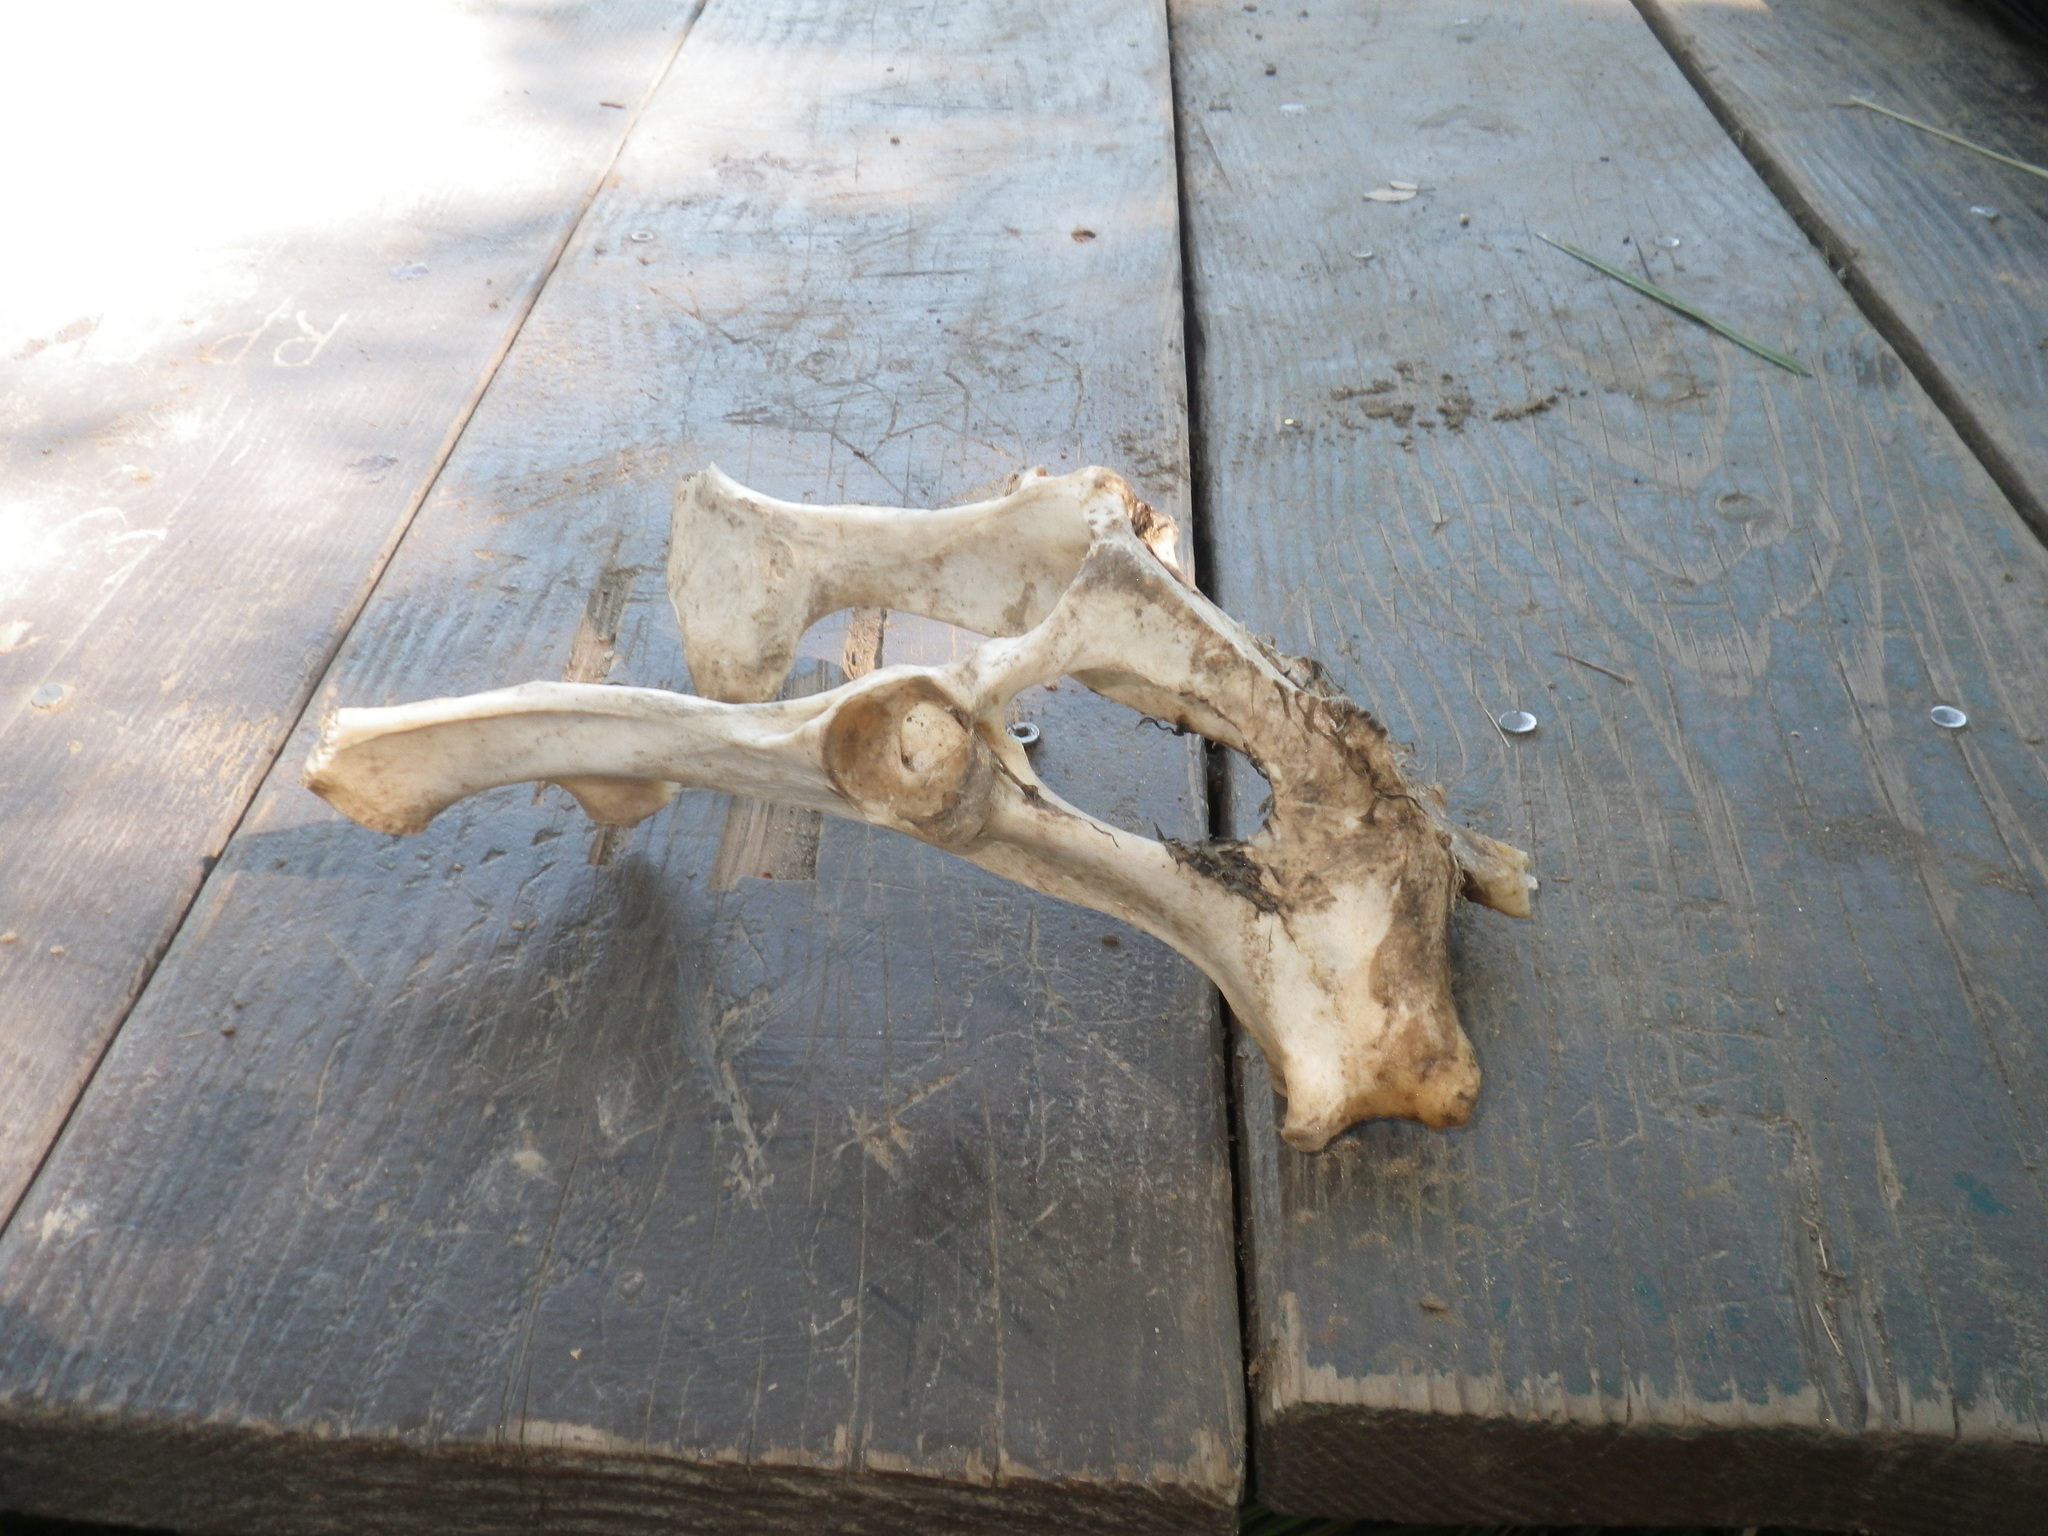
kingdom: Animalia
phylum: Chordata
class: Mammalia
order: Artiodactyla
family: Cervidae
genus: Odocoileus
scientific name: Odocoileus hemionus
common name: Mule deer
